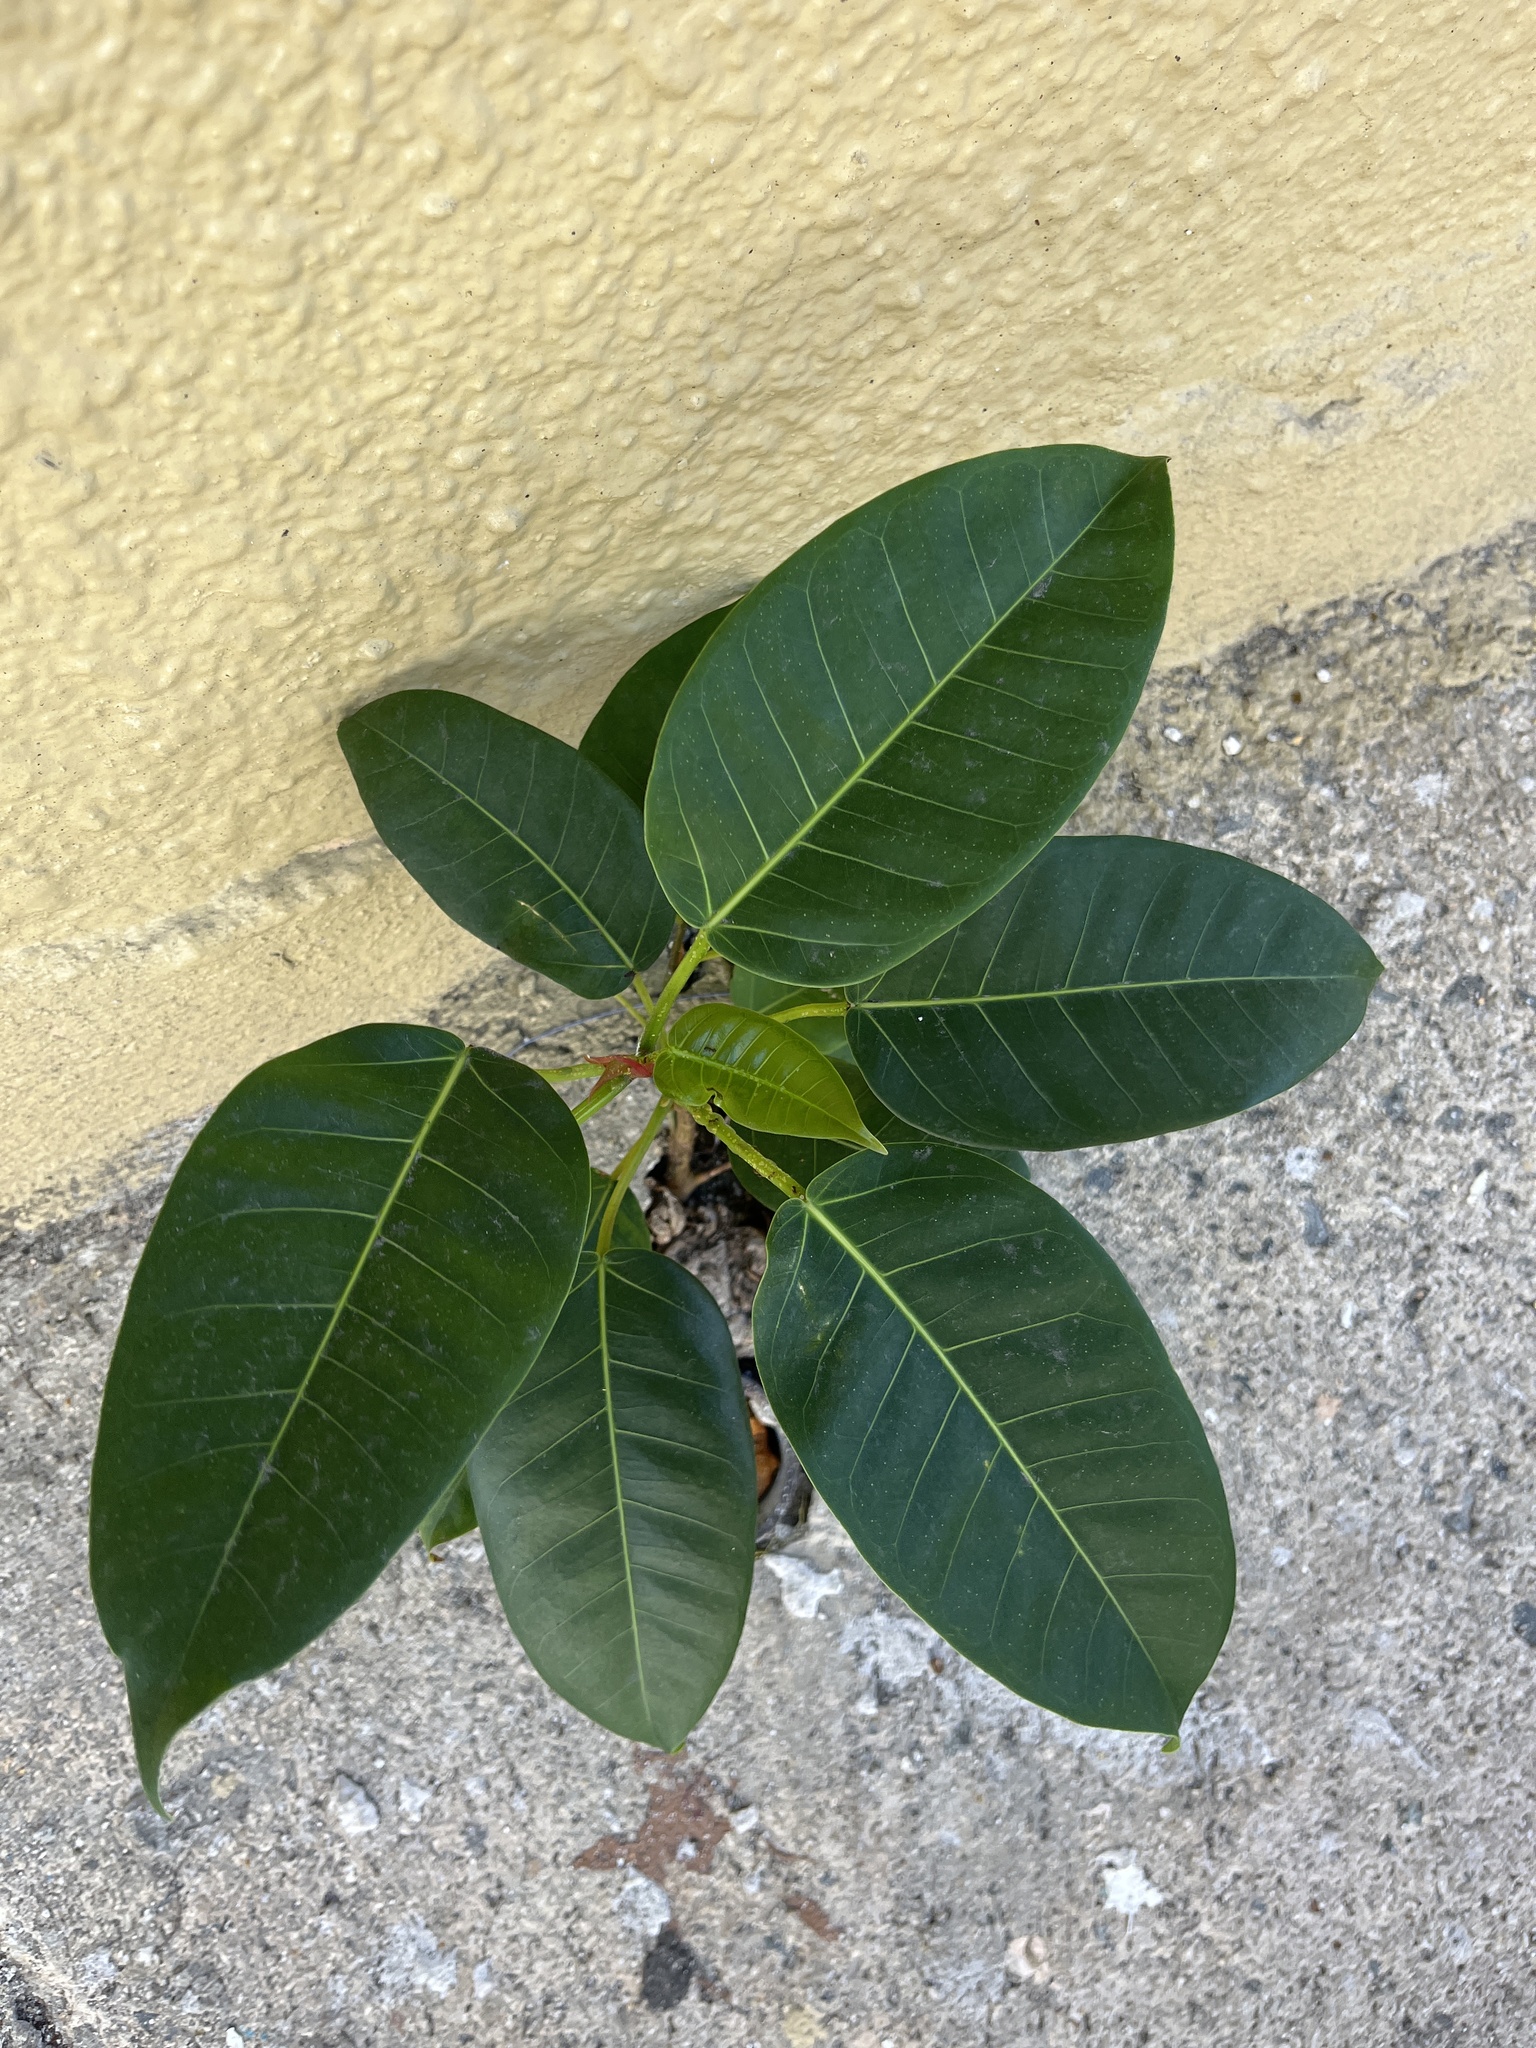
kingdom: Plantae
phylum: Tracheophyta
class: Magnoliopsida
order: Rosales
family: Moraceae
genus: Ficus
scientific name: Ficus citrifolia
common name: Strangler fig
